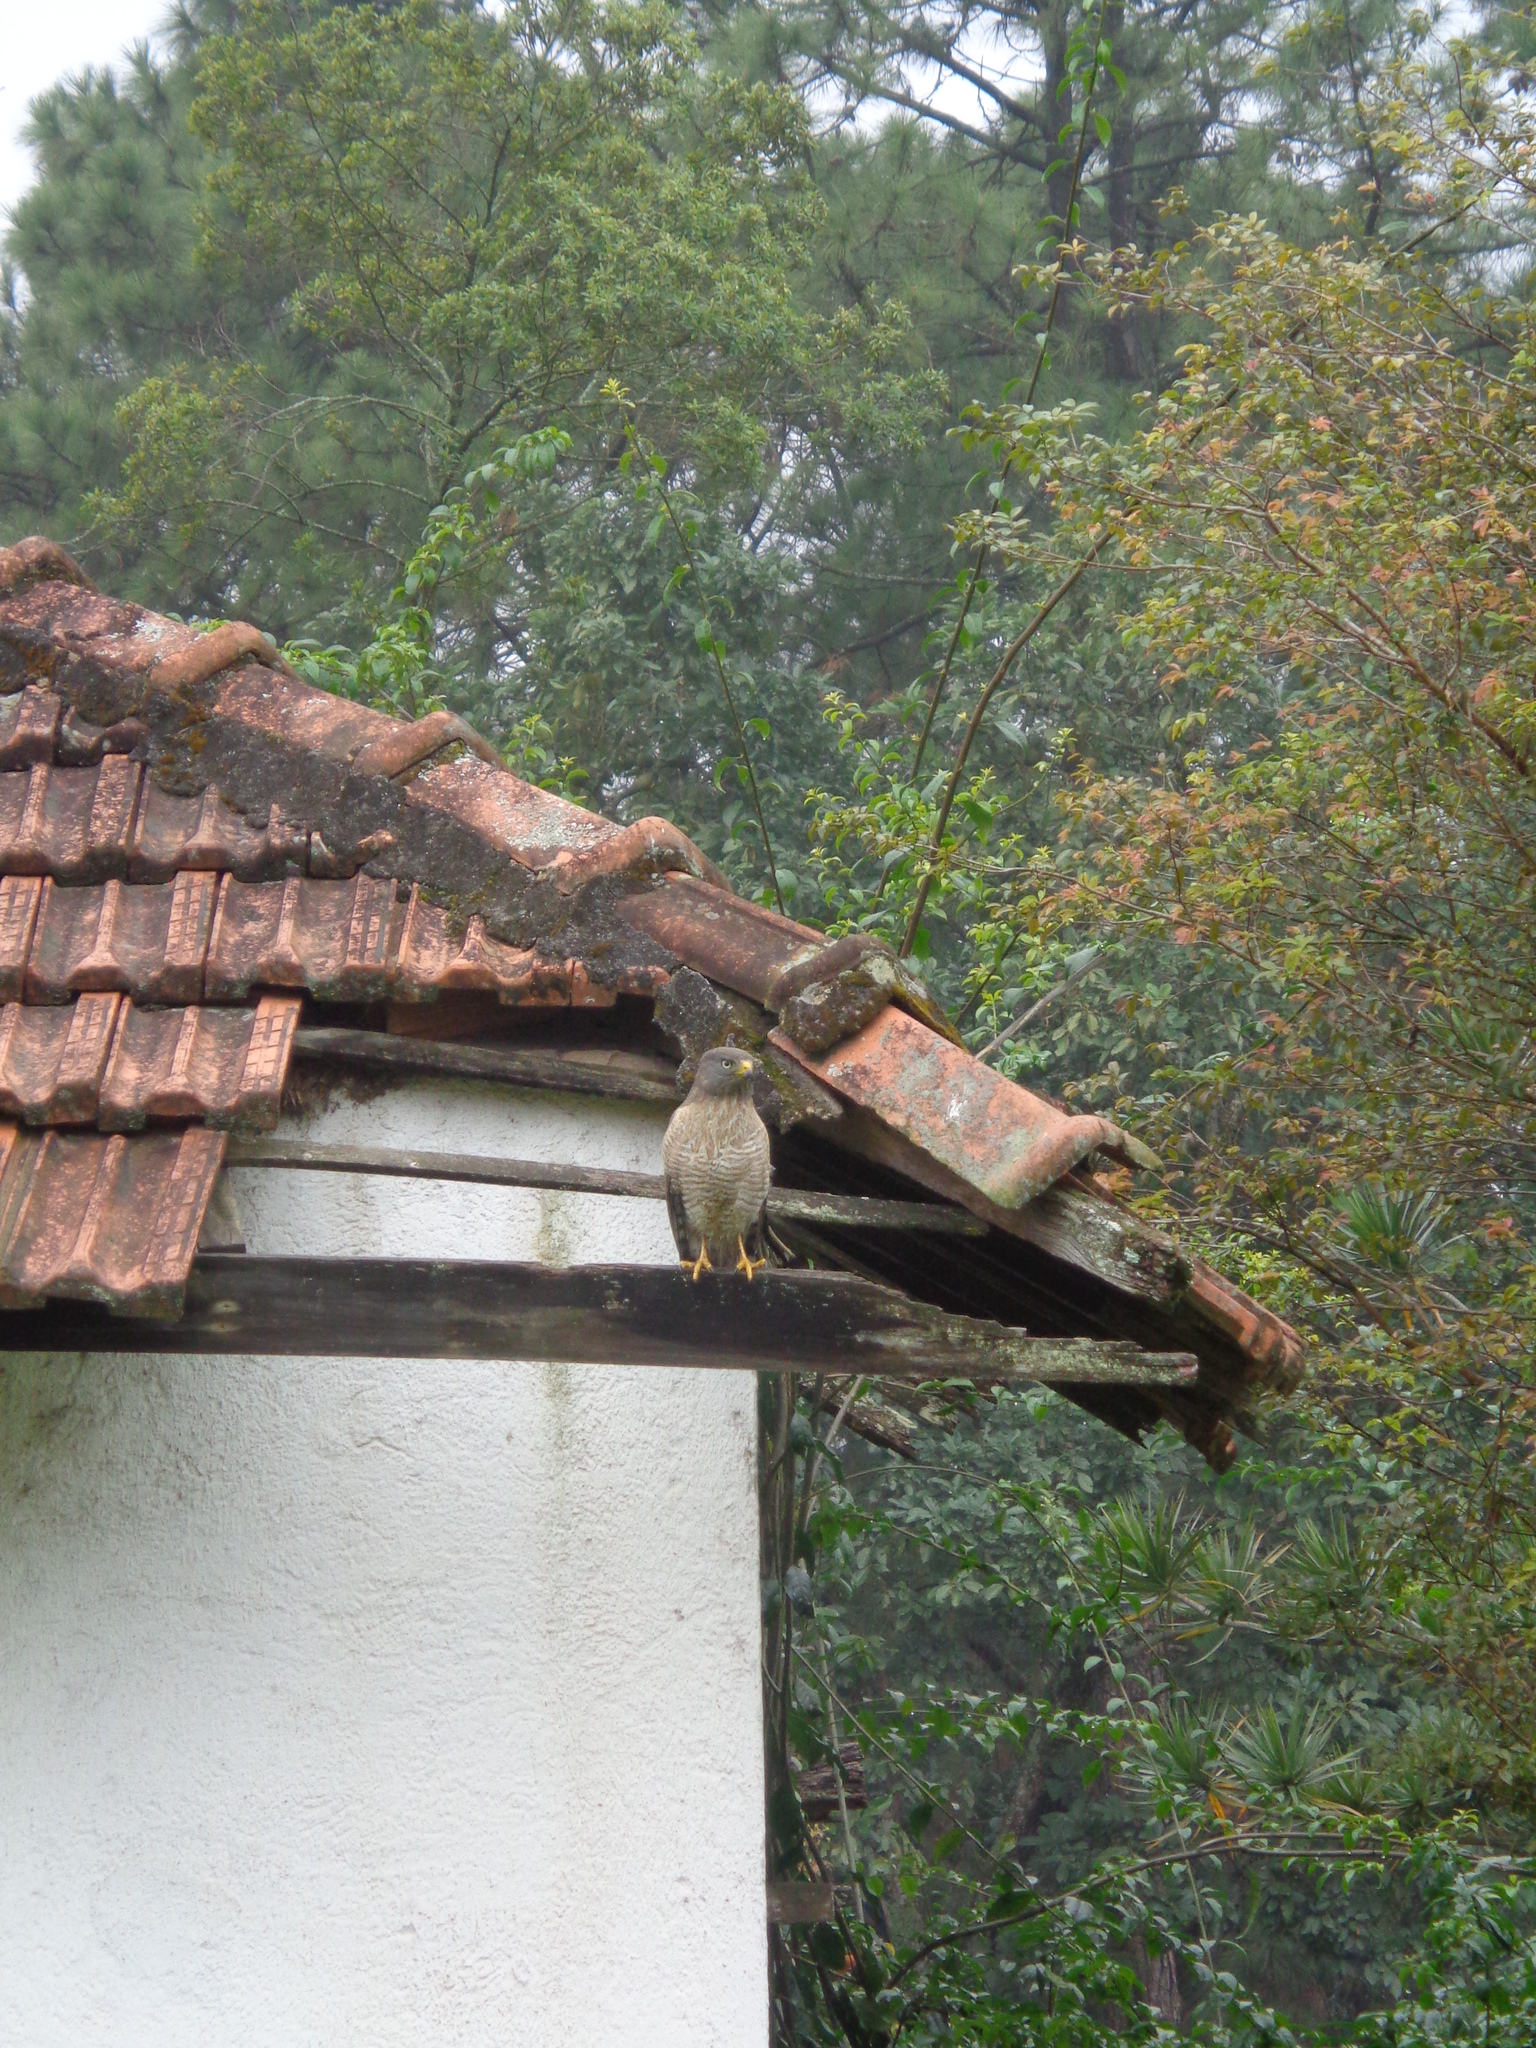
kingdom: Animalia
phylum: Chordata
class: Aves
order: Accipitriformes
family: Accipitridae
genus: Rupornis
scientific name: Rupornis magnirostris
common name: Roadside hawk
